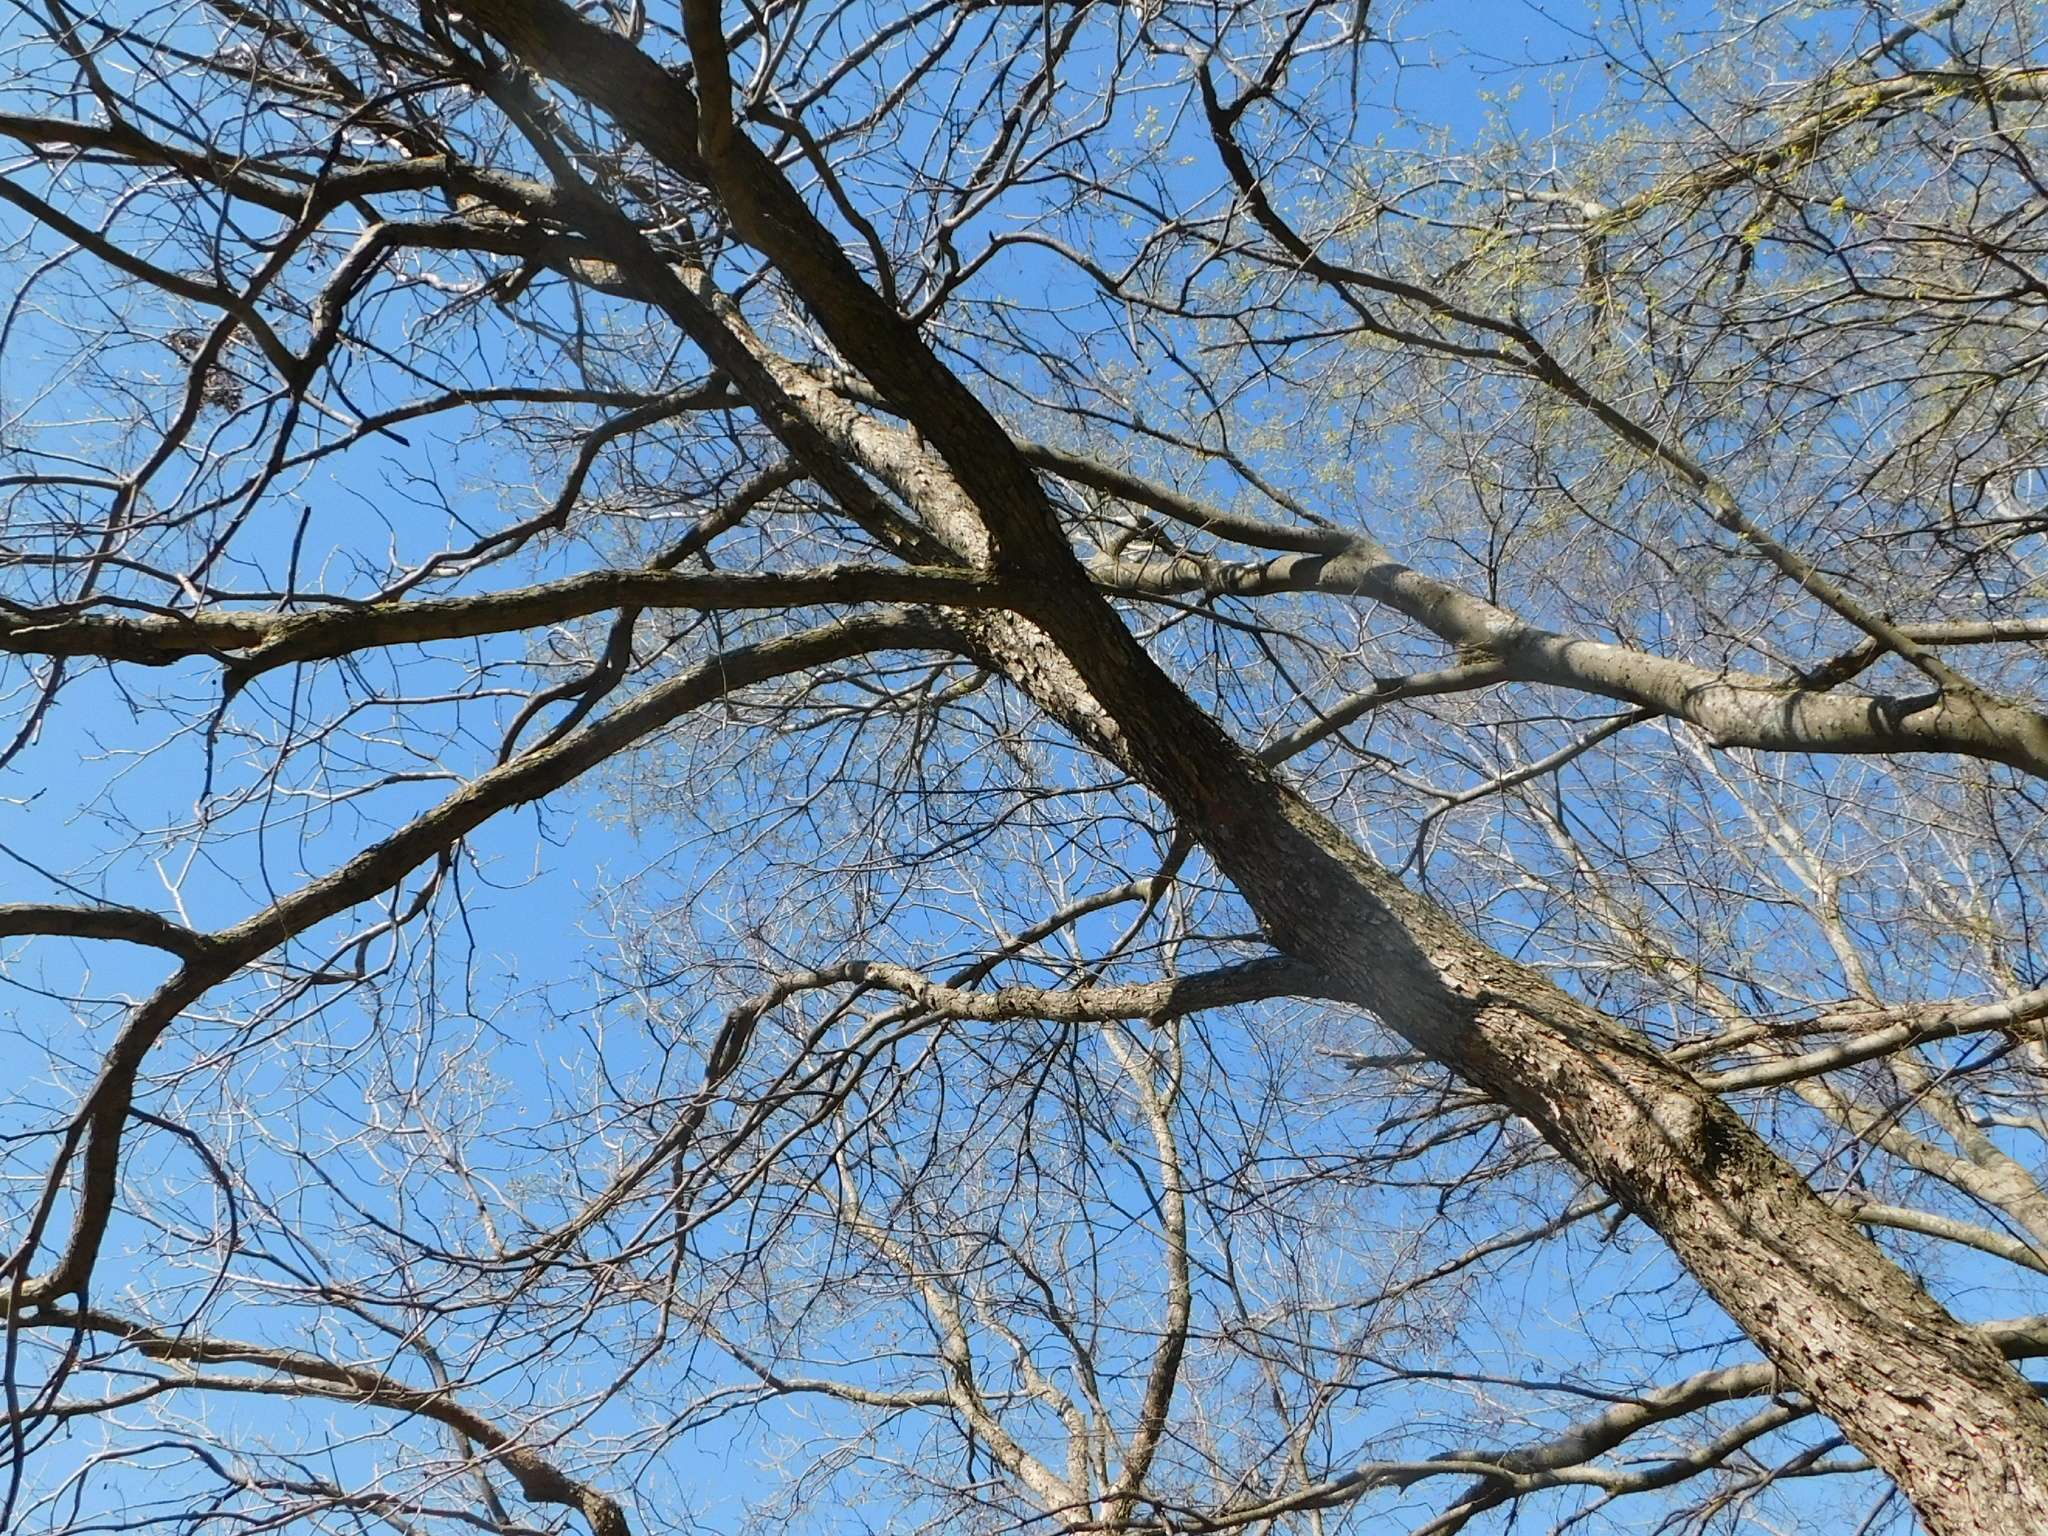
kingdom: Plantae
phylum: Tracheophyta
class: Magnoliopsida
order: Fagales
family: Juglandaceae
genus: Juglans
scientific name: Juglans nigra
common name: Black walnut
